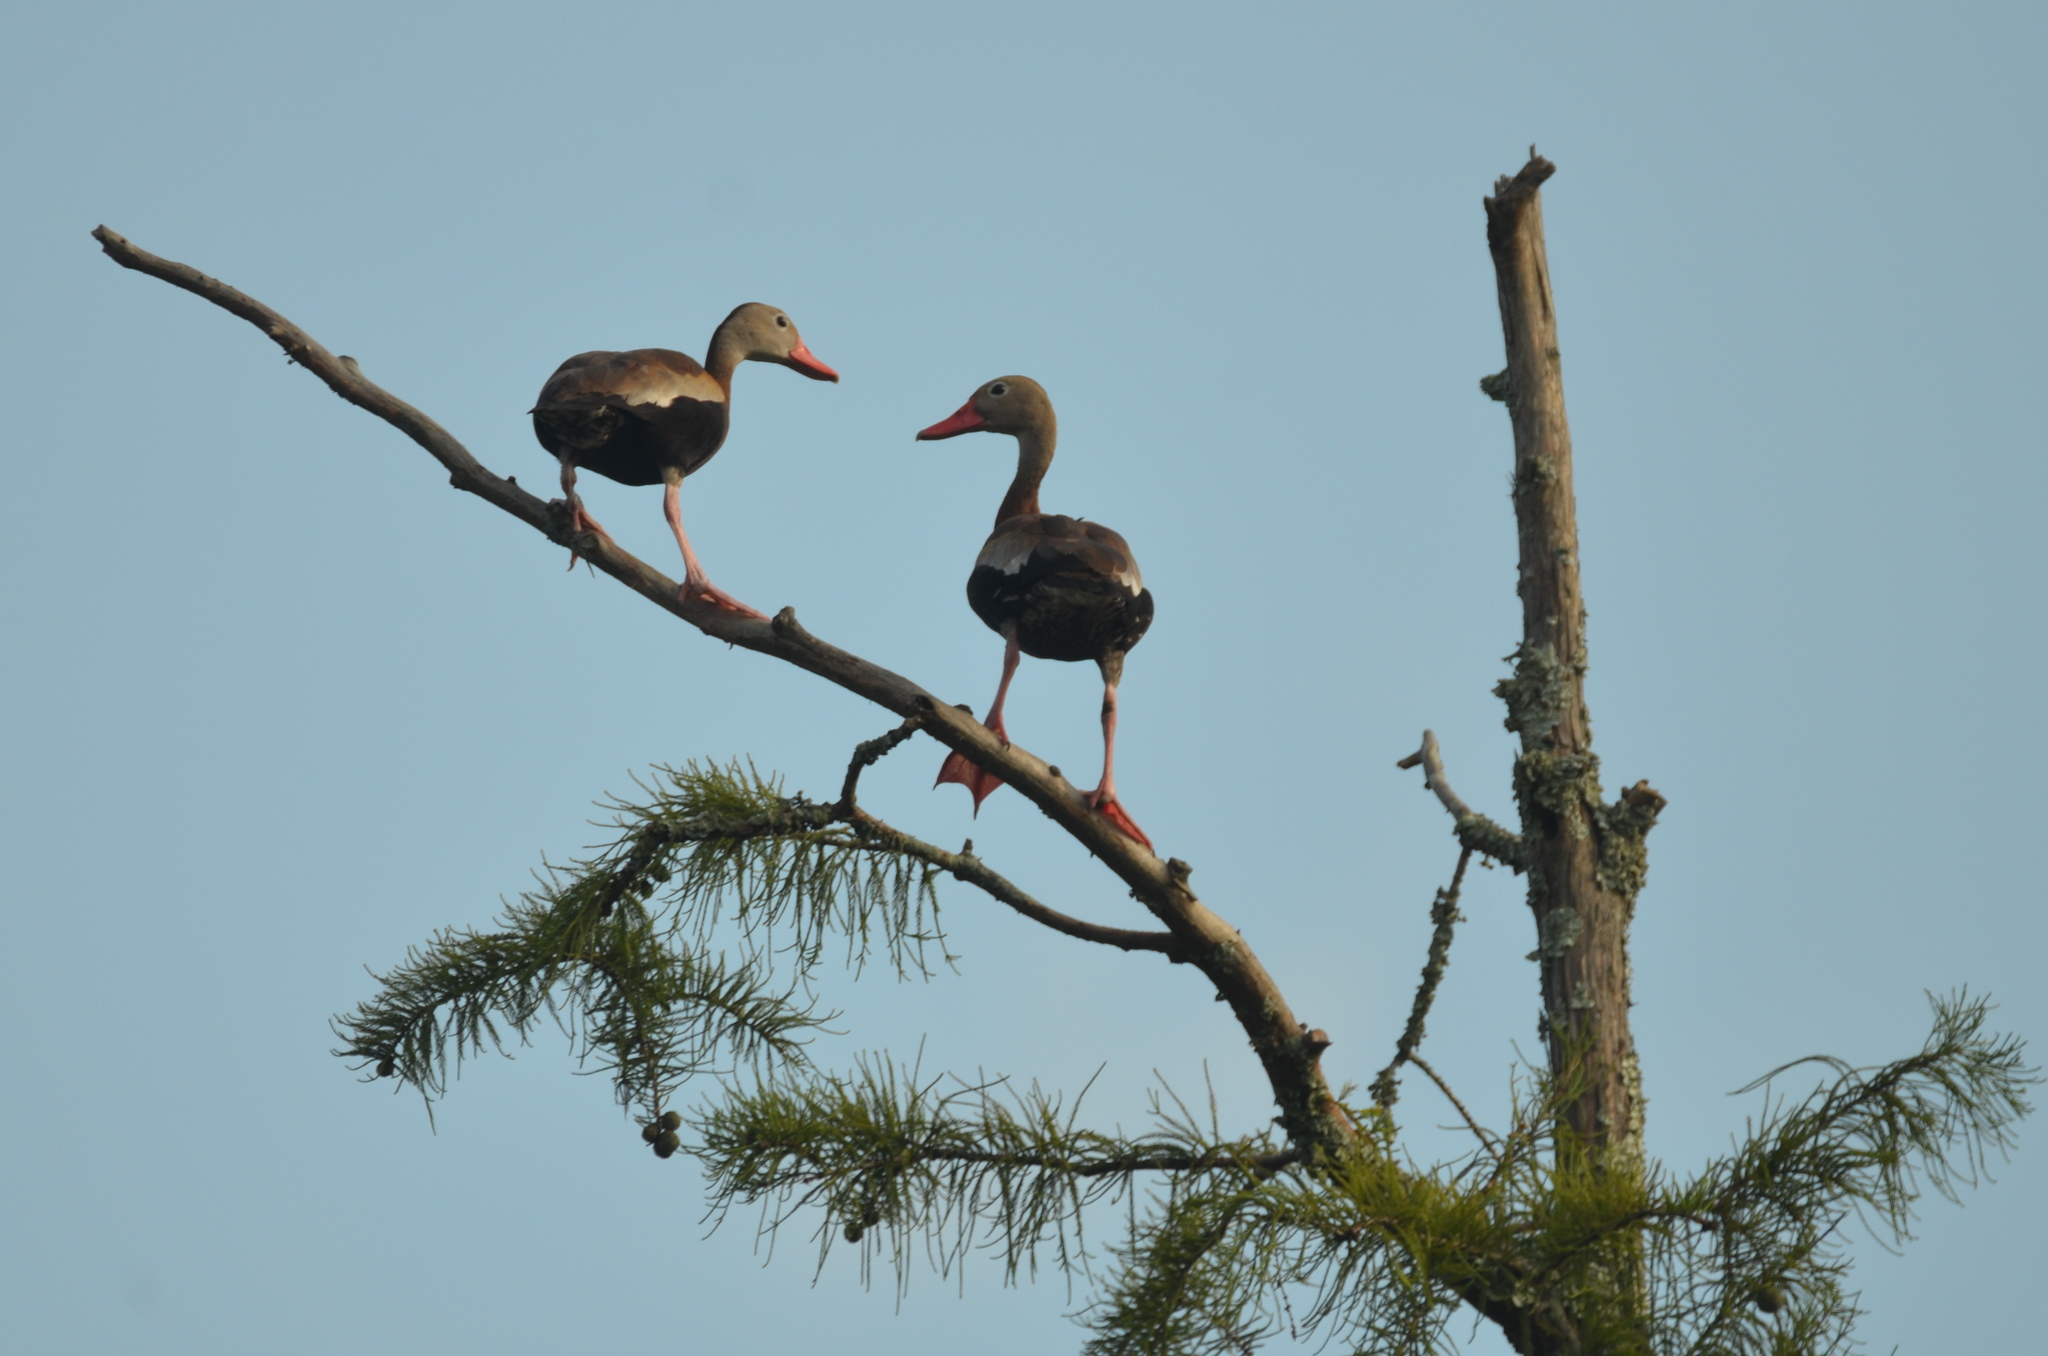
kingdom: Animalia
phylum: Chordata
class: Aves
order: Anseriformes
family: Anatidae
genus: Dendrocygna
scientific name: Dendrocygna autumnalis
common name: Black-bellied whistling duck
